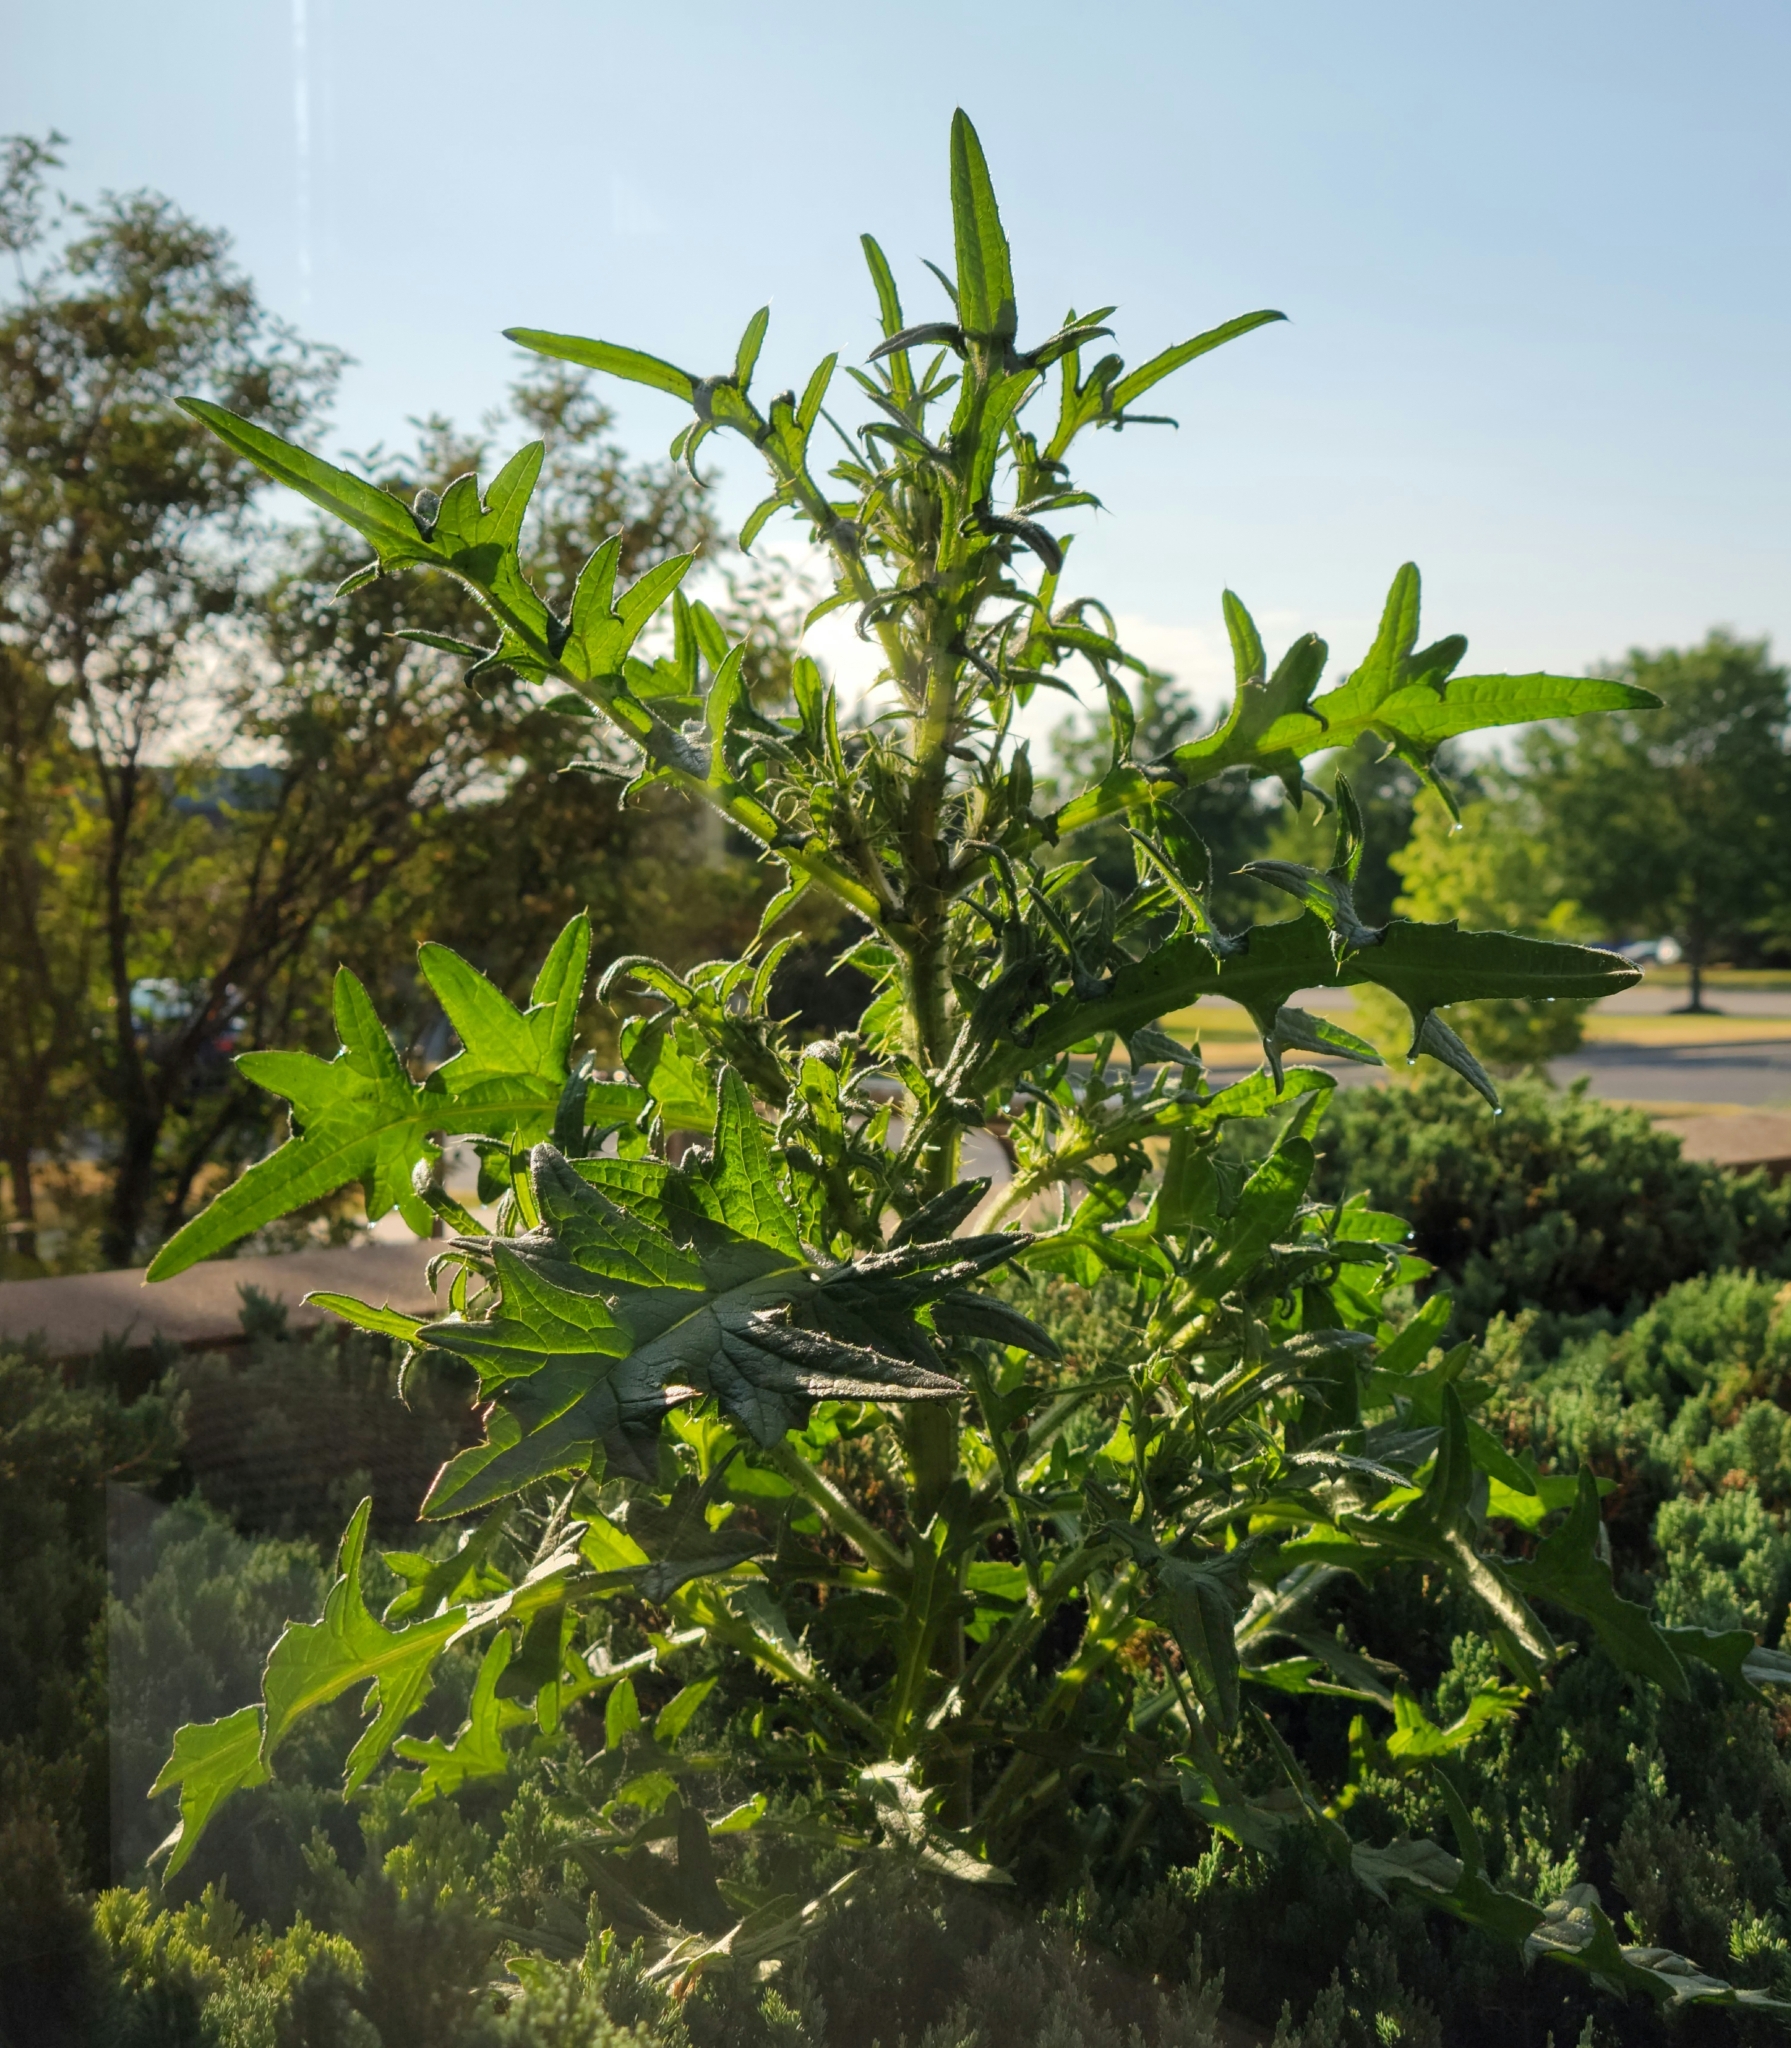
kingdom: Plantae
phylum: Tracheophyta
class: Magnoliopsida
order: Asterales
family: Asteraceae
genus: Cirsium
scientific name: Cirsium vulgare
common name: Bull thistle
